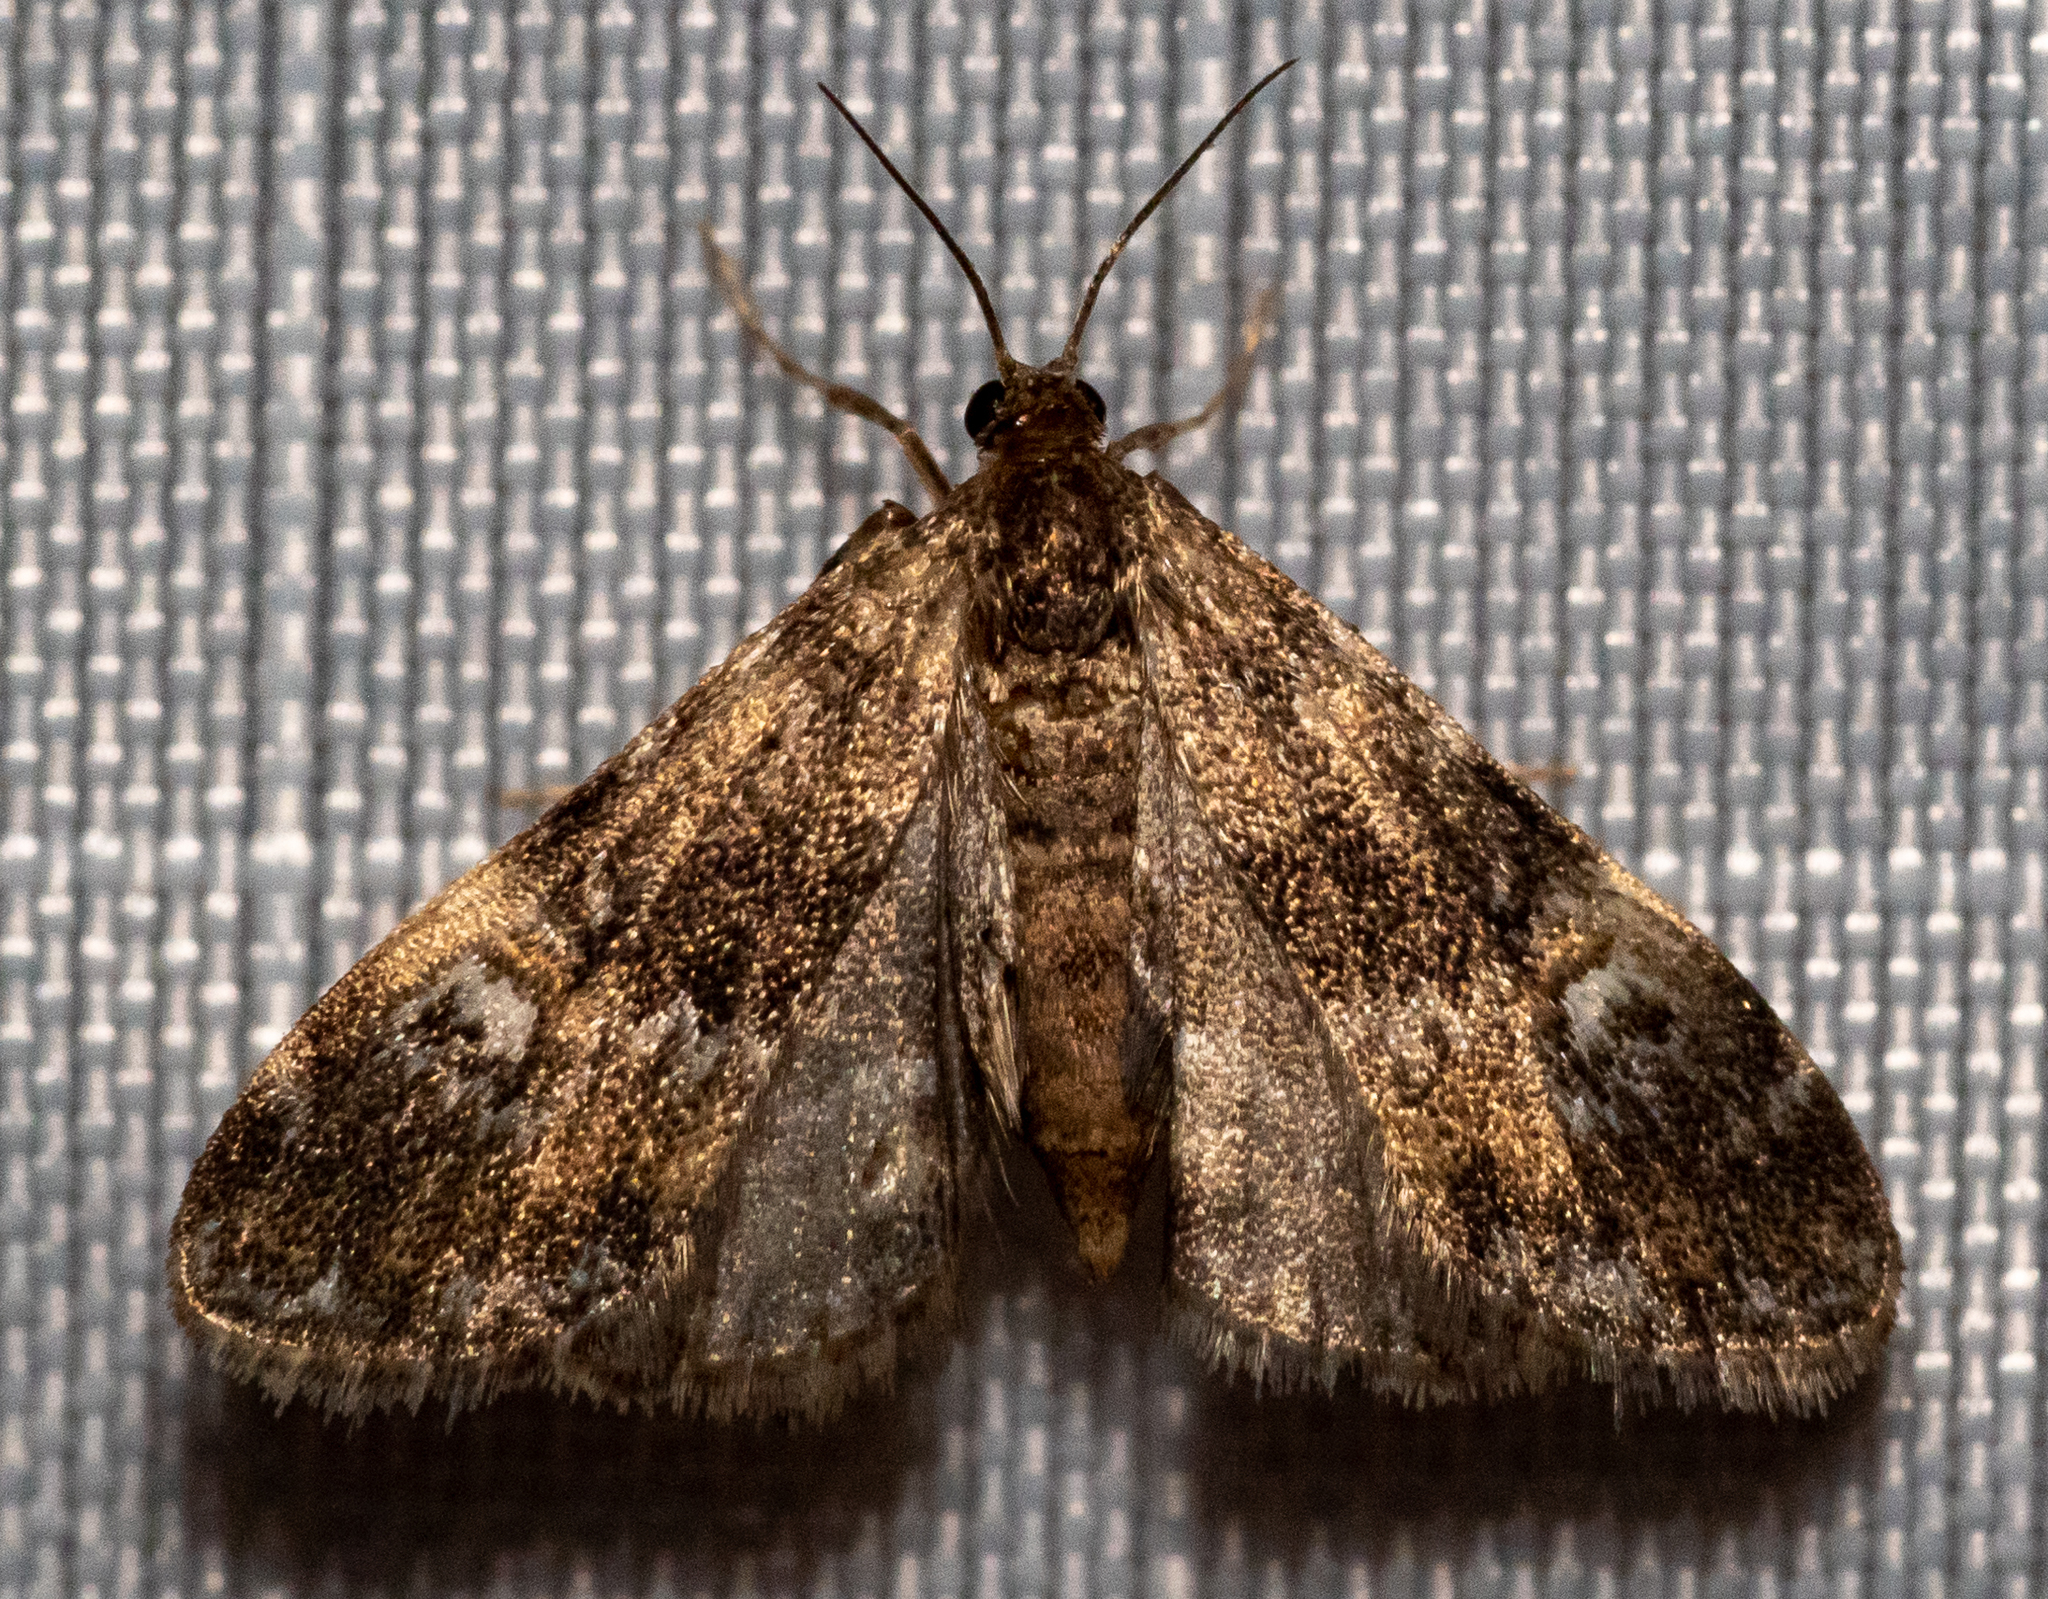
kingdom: Animalia
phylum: Arthropoda
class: Insecta
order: Lepidoptera
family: Crambidae
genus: Elophila
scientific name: Elophila obliteralis
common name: Waterlily leafcutter moth
